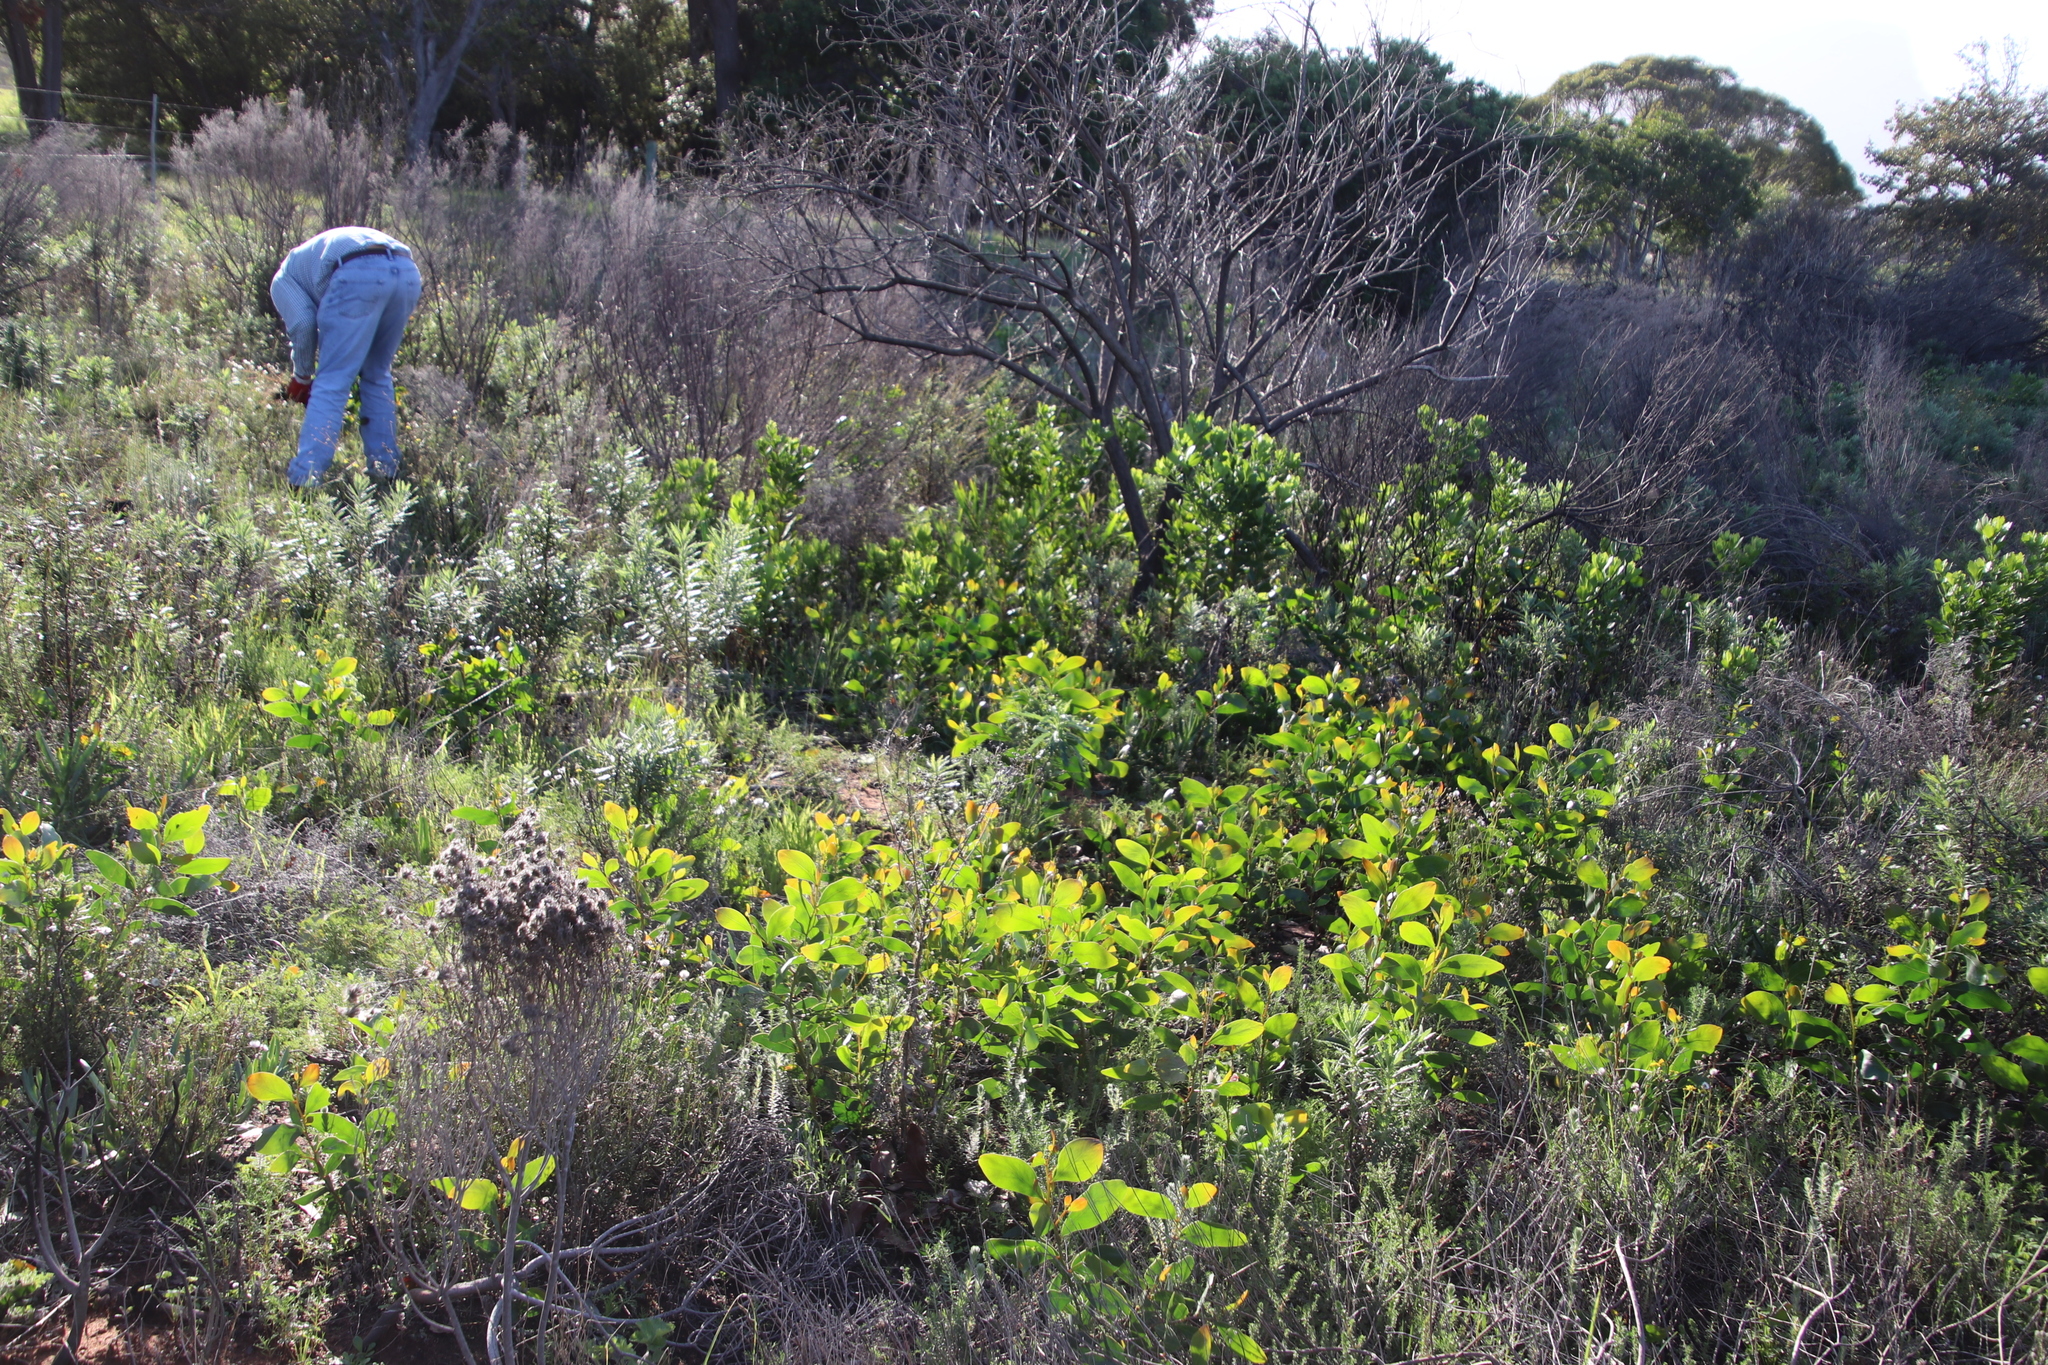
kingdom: Plantae
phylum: Tracheophyta
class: Magnoliopsida
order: Fabales
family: Fabaceae
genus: Acacia
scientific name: Acacia pycnantha
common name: Golden wattle
